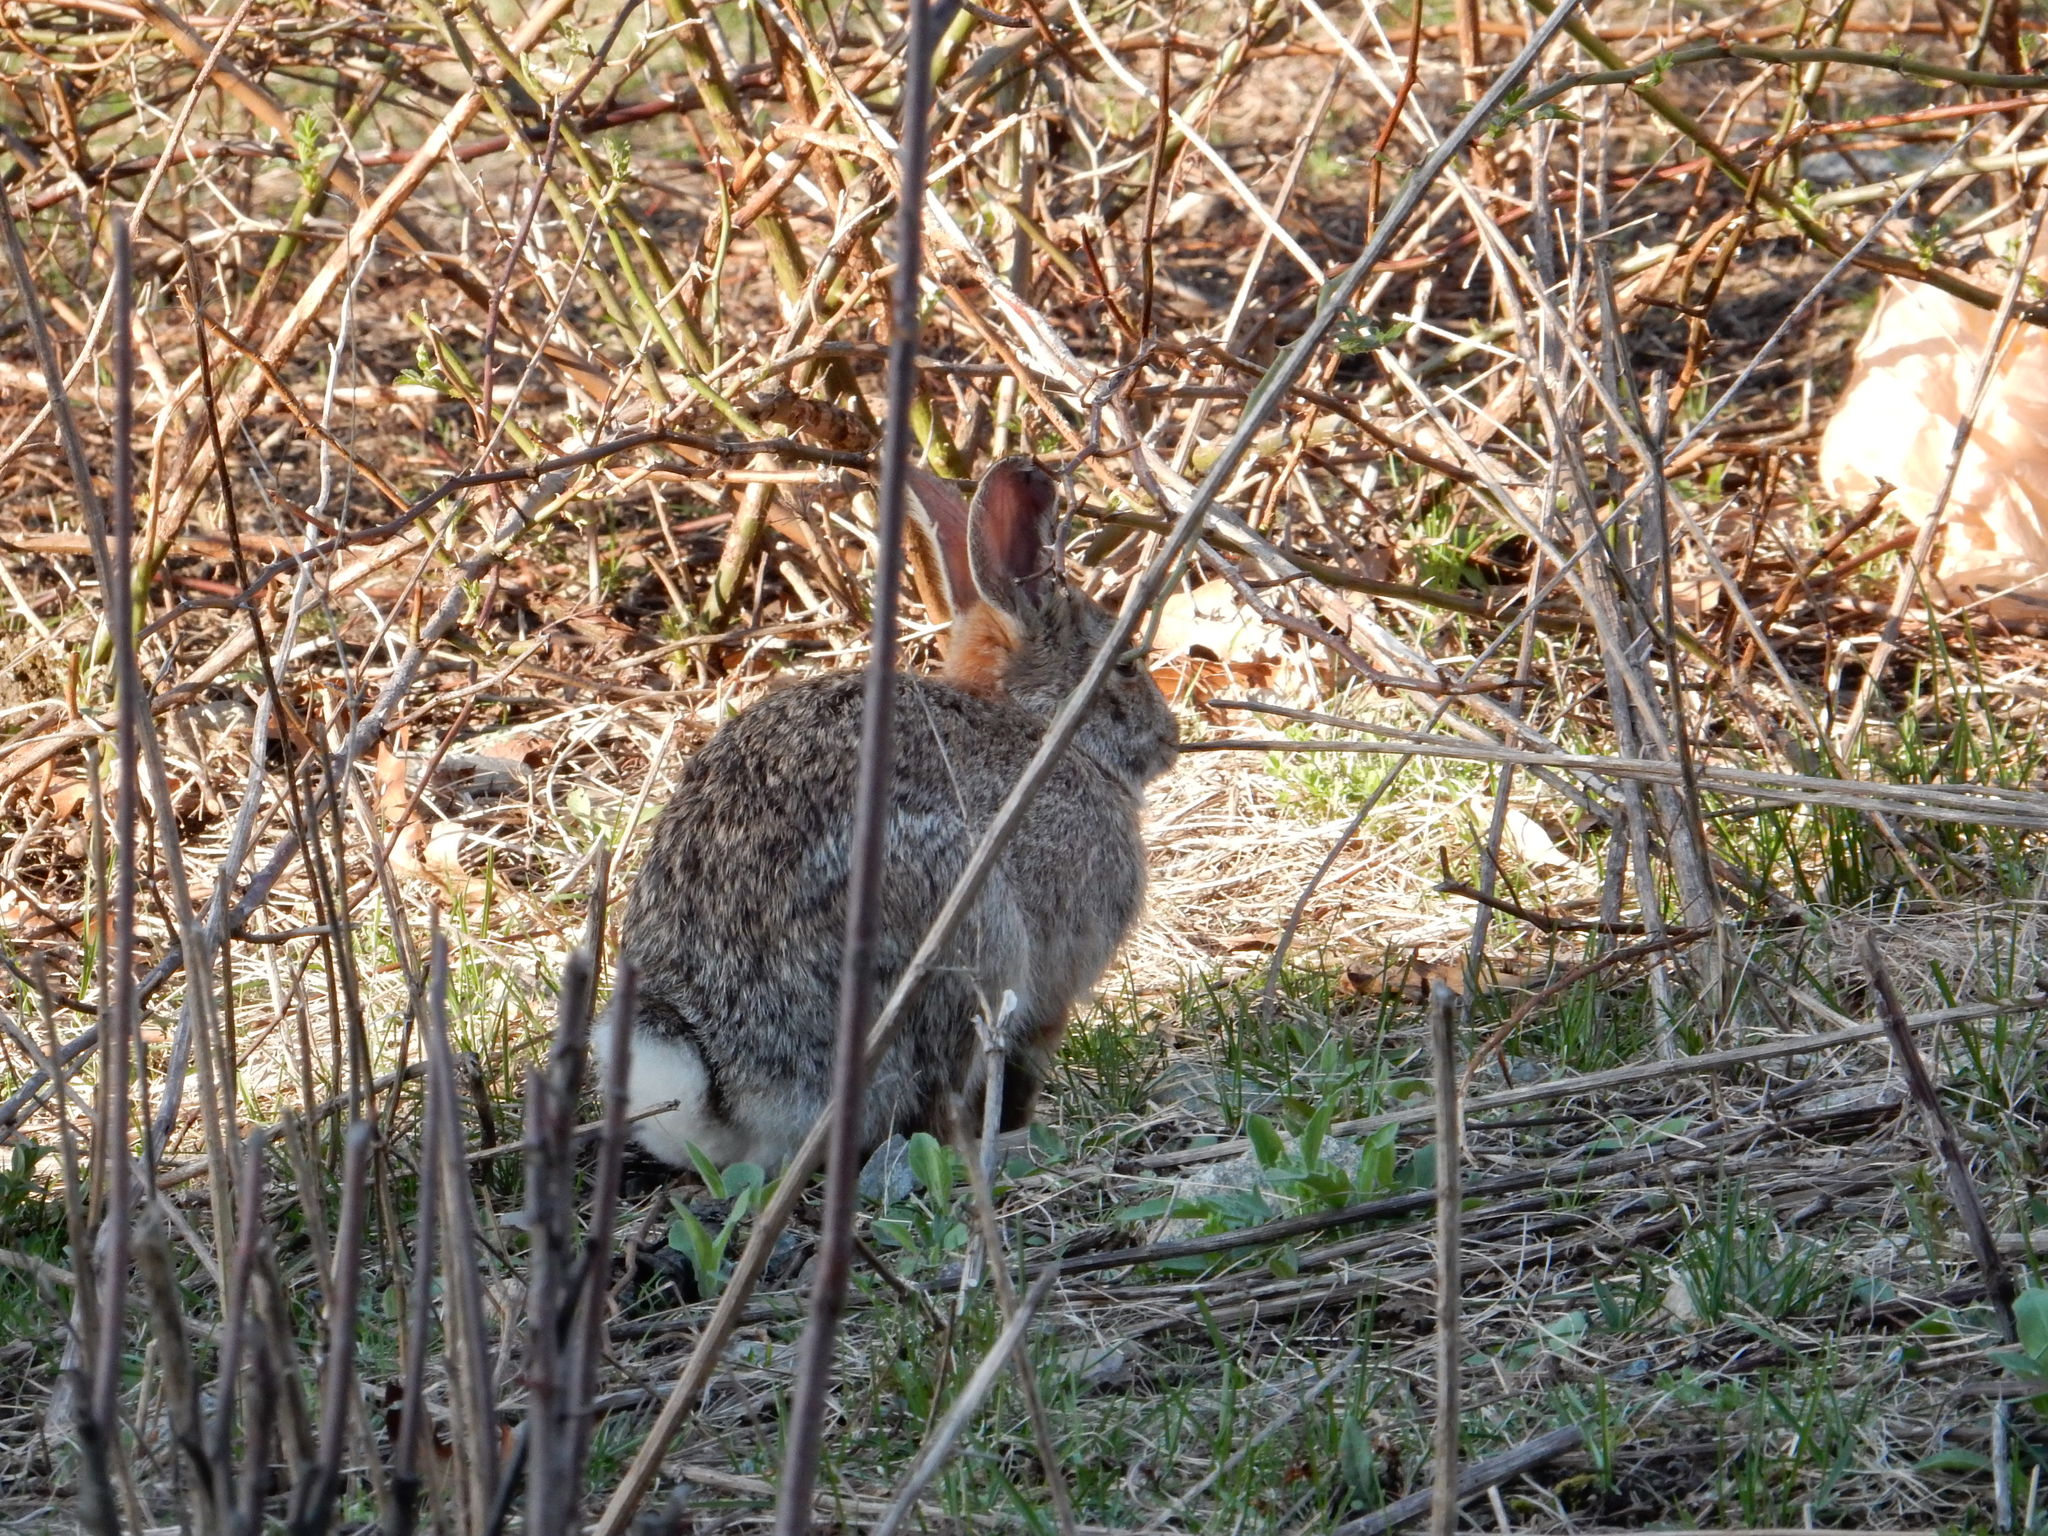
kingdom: Animalia
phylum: Chordata
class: Mammalia
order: Lagomorpha
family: Leporidae
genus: Sylvilagus
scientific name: Sylvilagus floridanus
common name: Eastern cottontail
